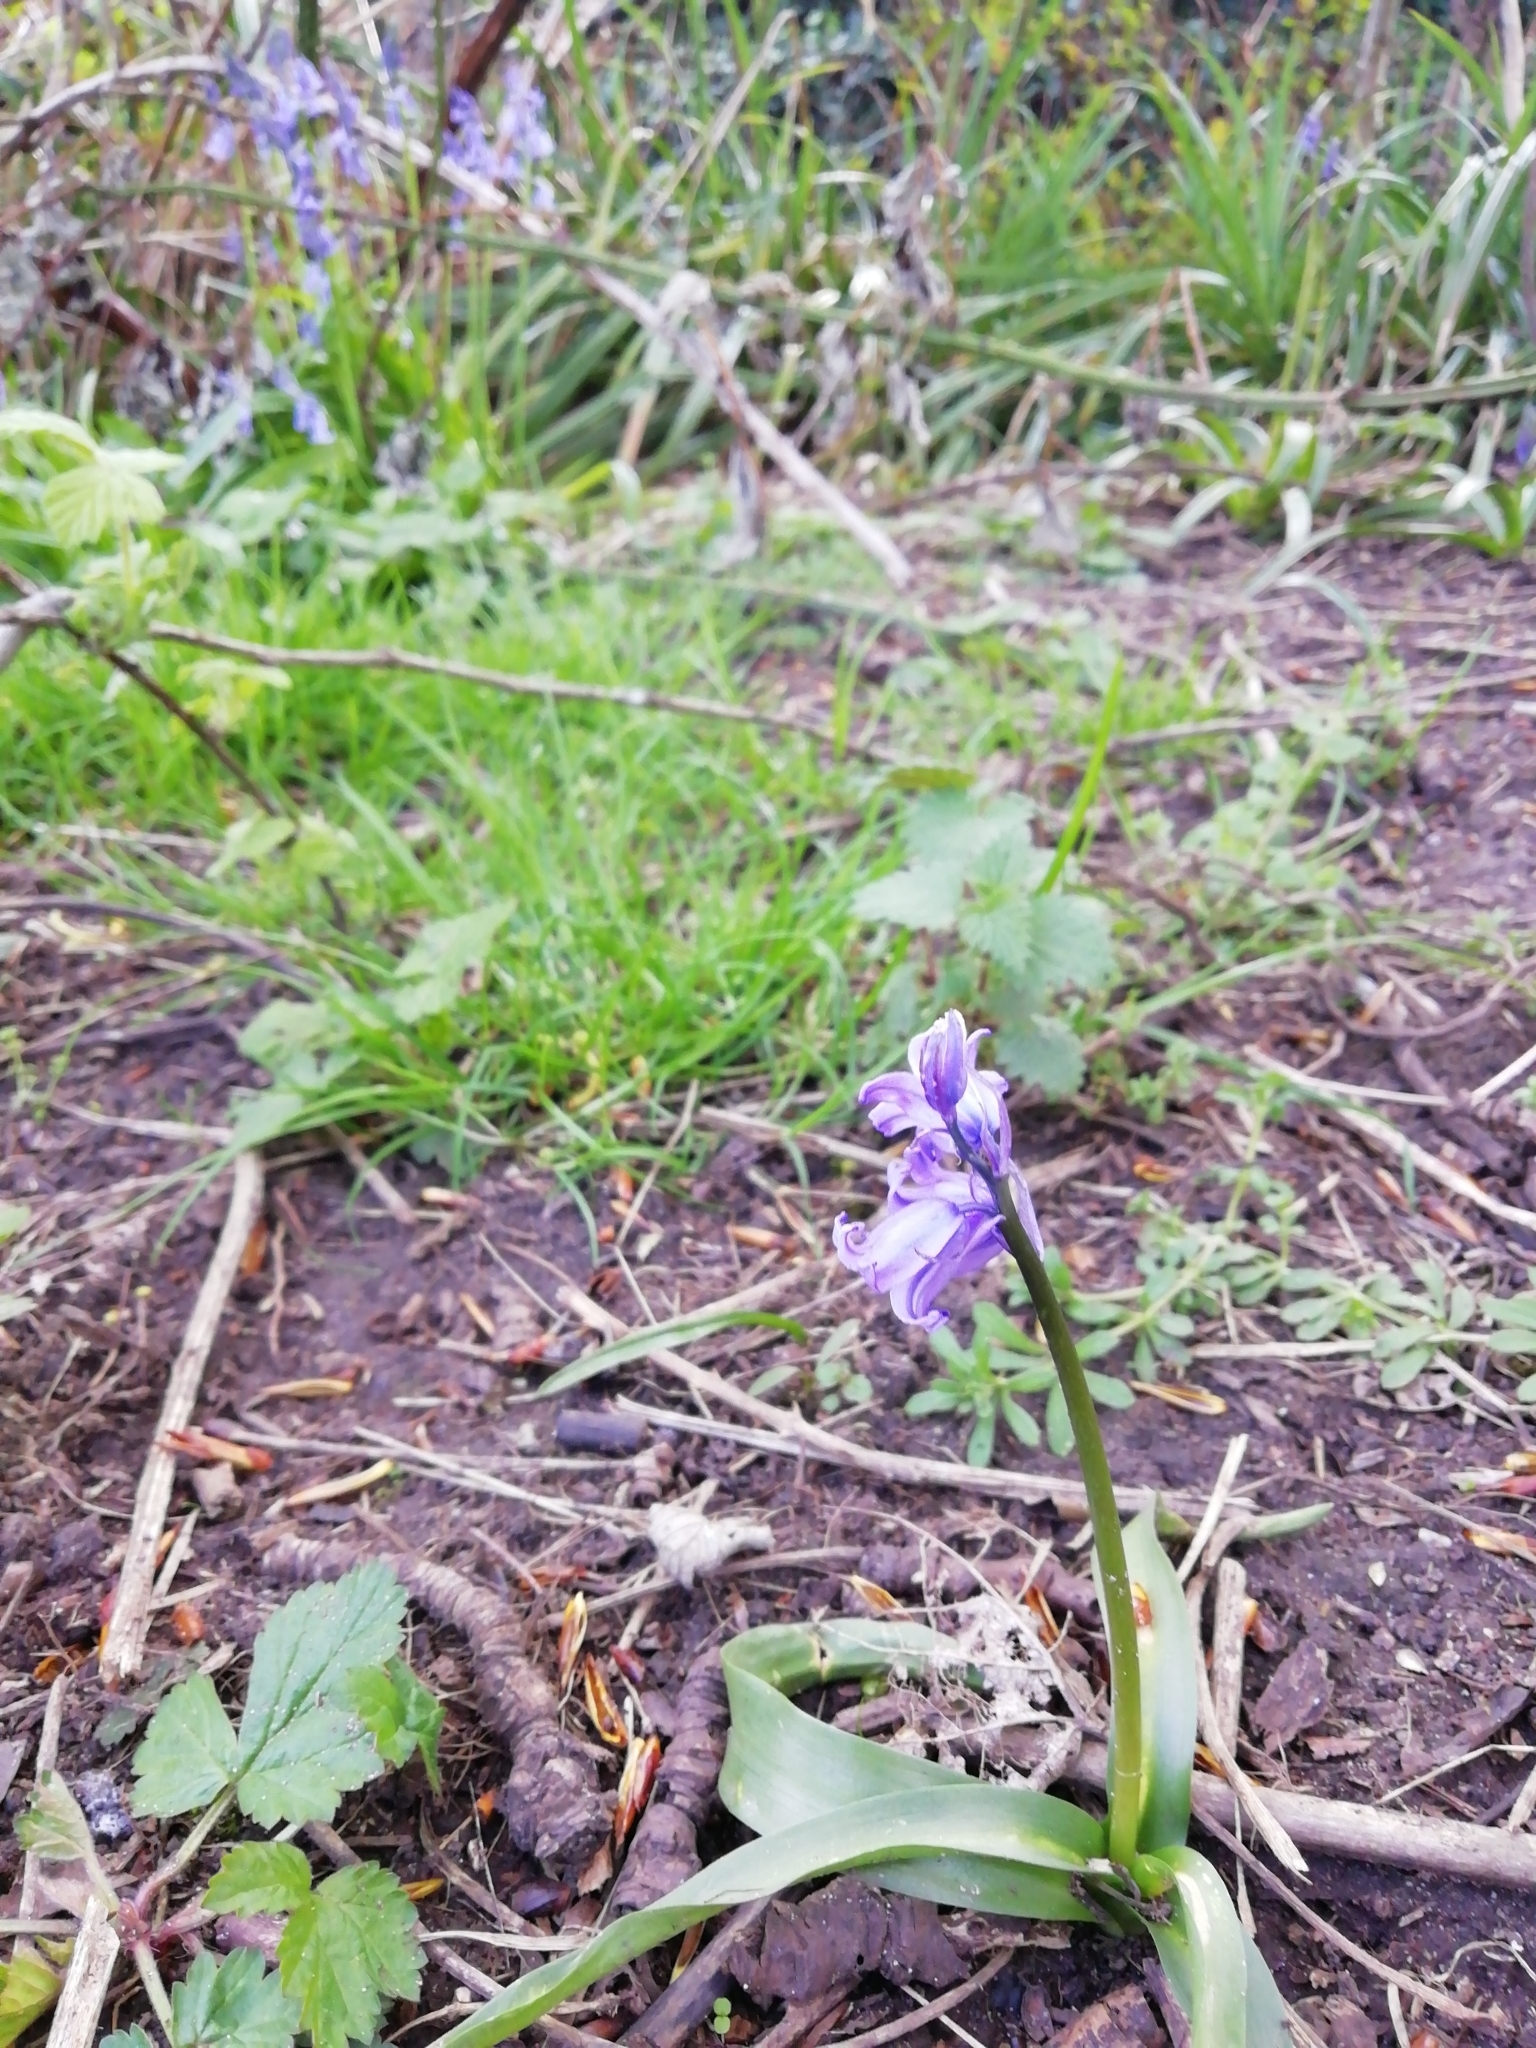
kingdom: Plantae
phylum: Tracheophyta
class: Liliopsida
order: Asparagales
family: Asparagaceae
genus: Hyacinthoides
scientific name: Hyacinthoides massartiana
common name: Hyacinthoides
